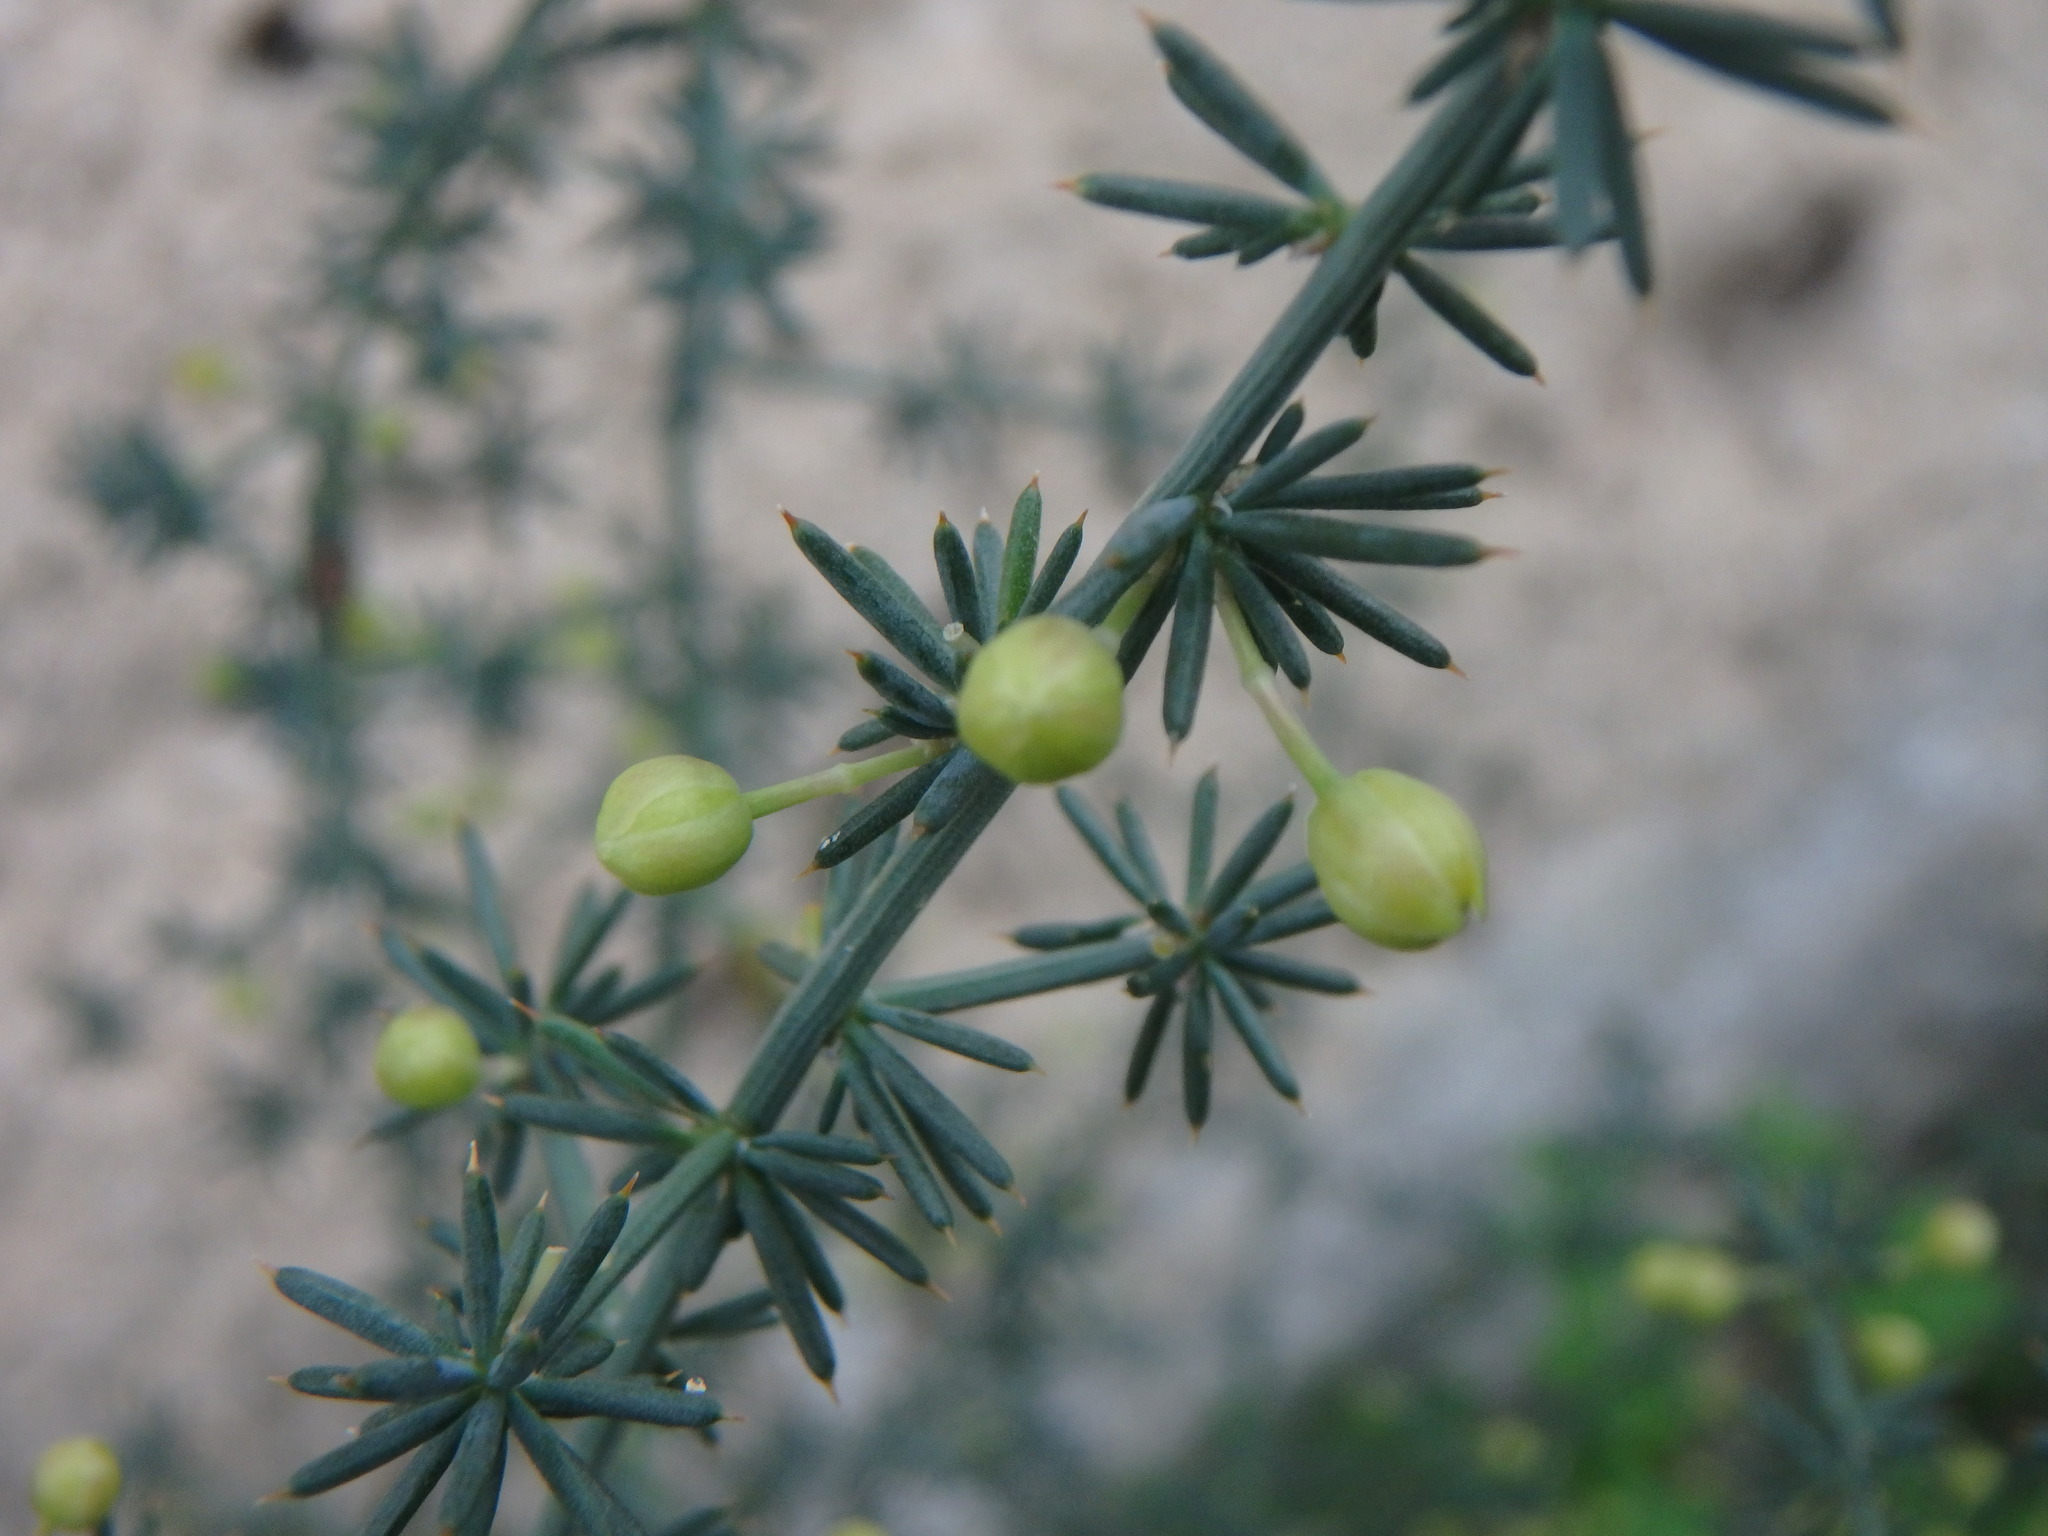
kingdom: Plantae
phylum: Tracheophyta
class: Liliopsida
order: Asparagales
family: Asparagaceae
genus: Asparagus
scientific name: Asparagus acutifolius
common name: Wild asparagus
